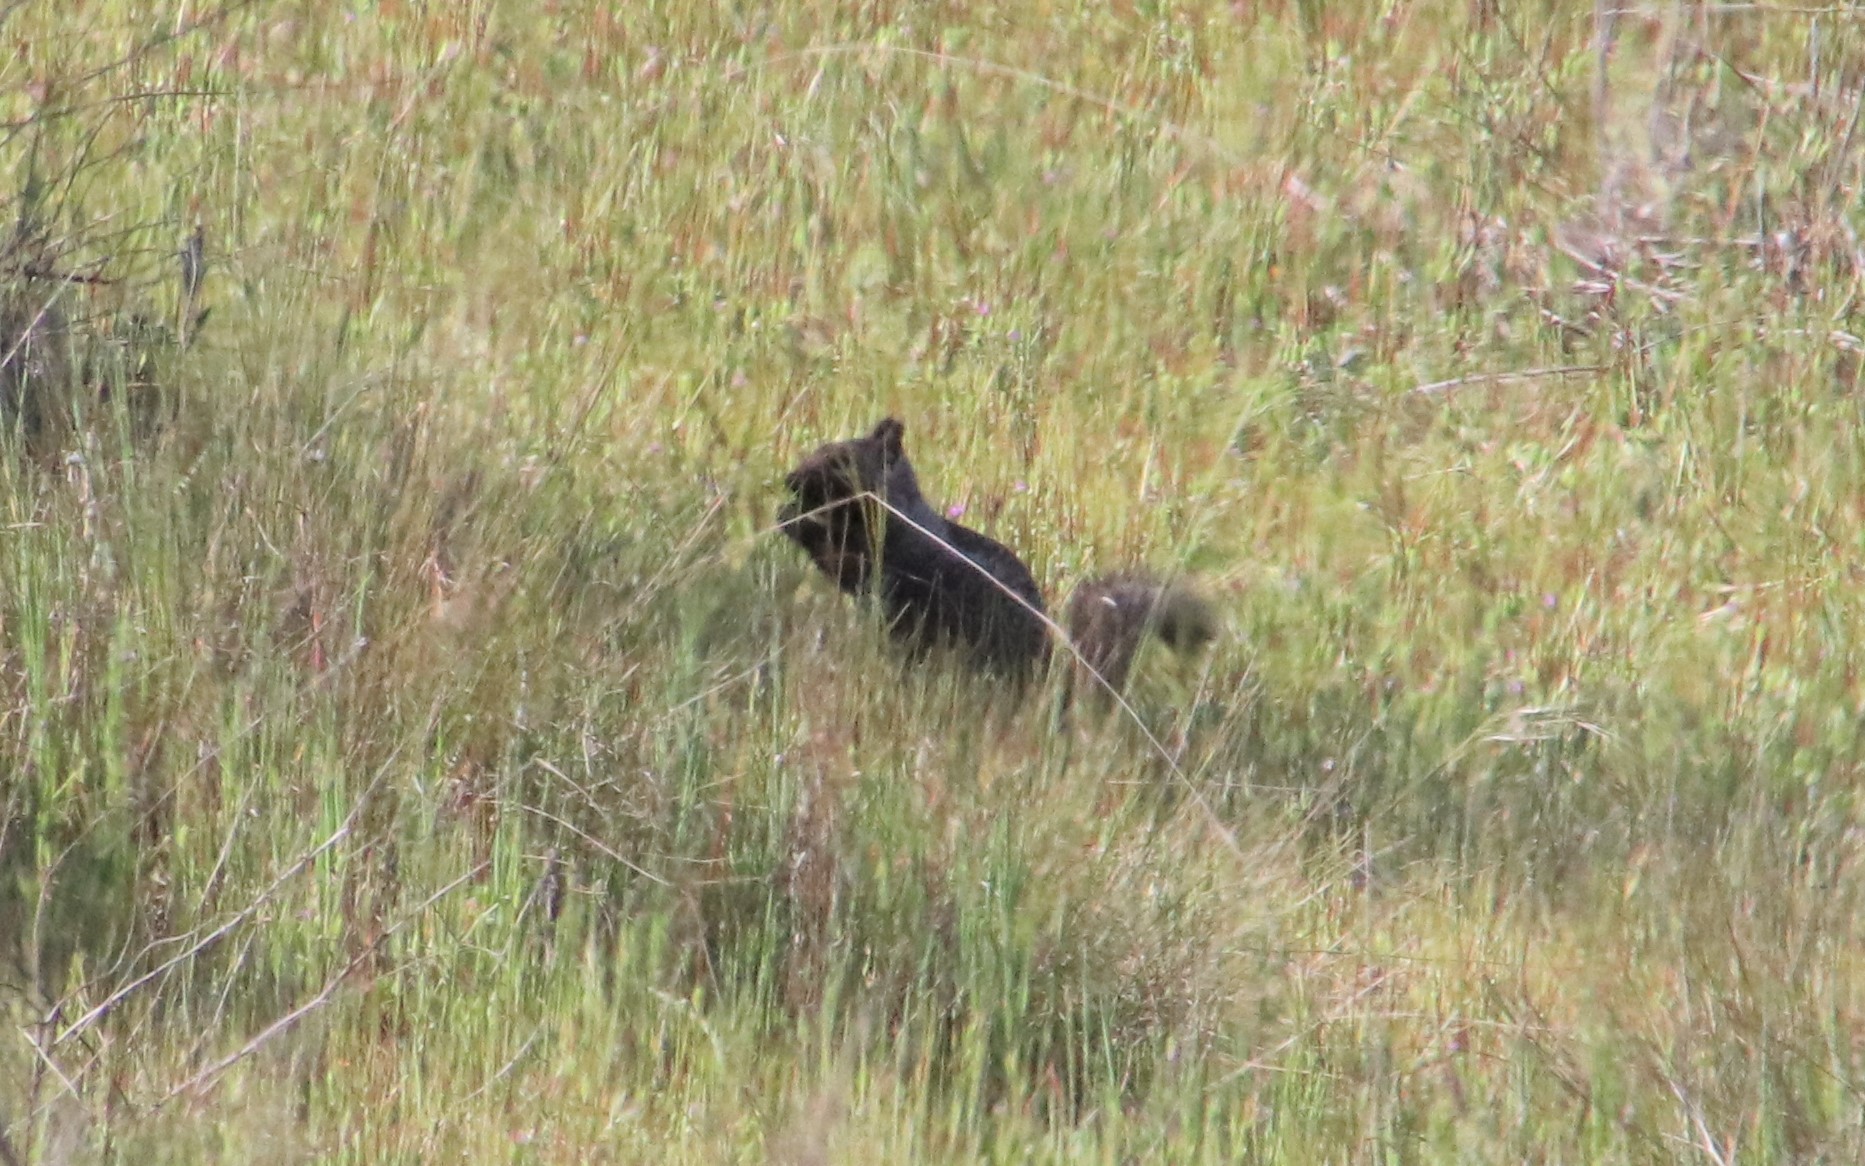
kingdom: Animalia
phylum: Chordata
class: Mammalia
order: Rodentia
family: Sciuridae
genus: Otospermophilus
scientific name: Otospermophilus beecheyi
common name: California ground squirrel
